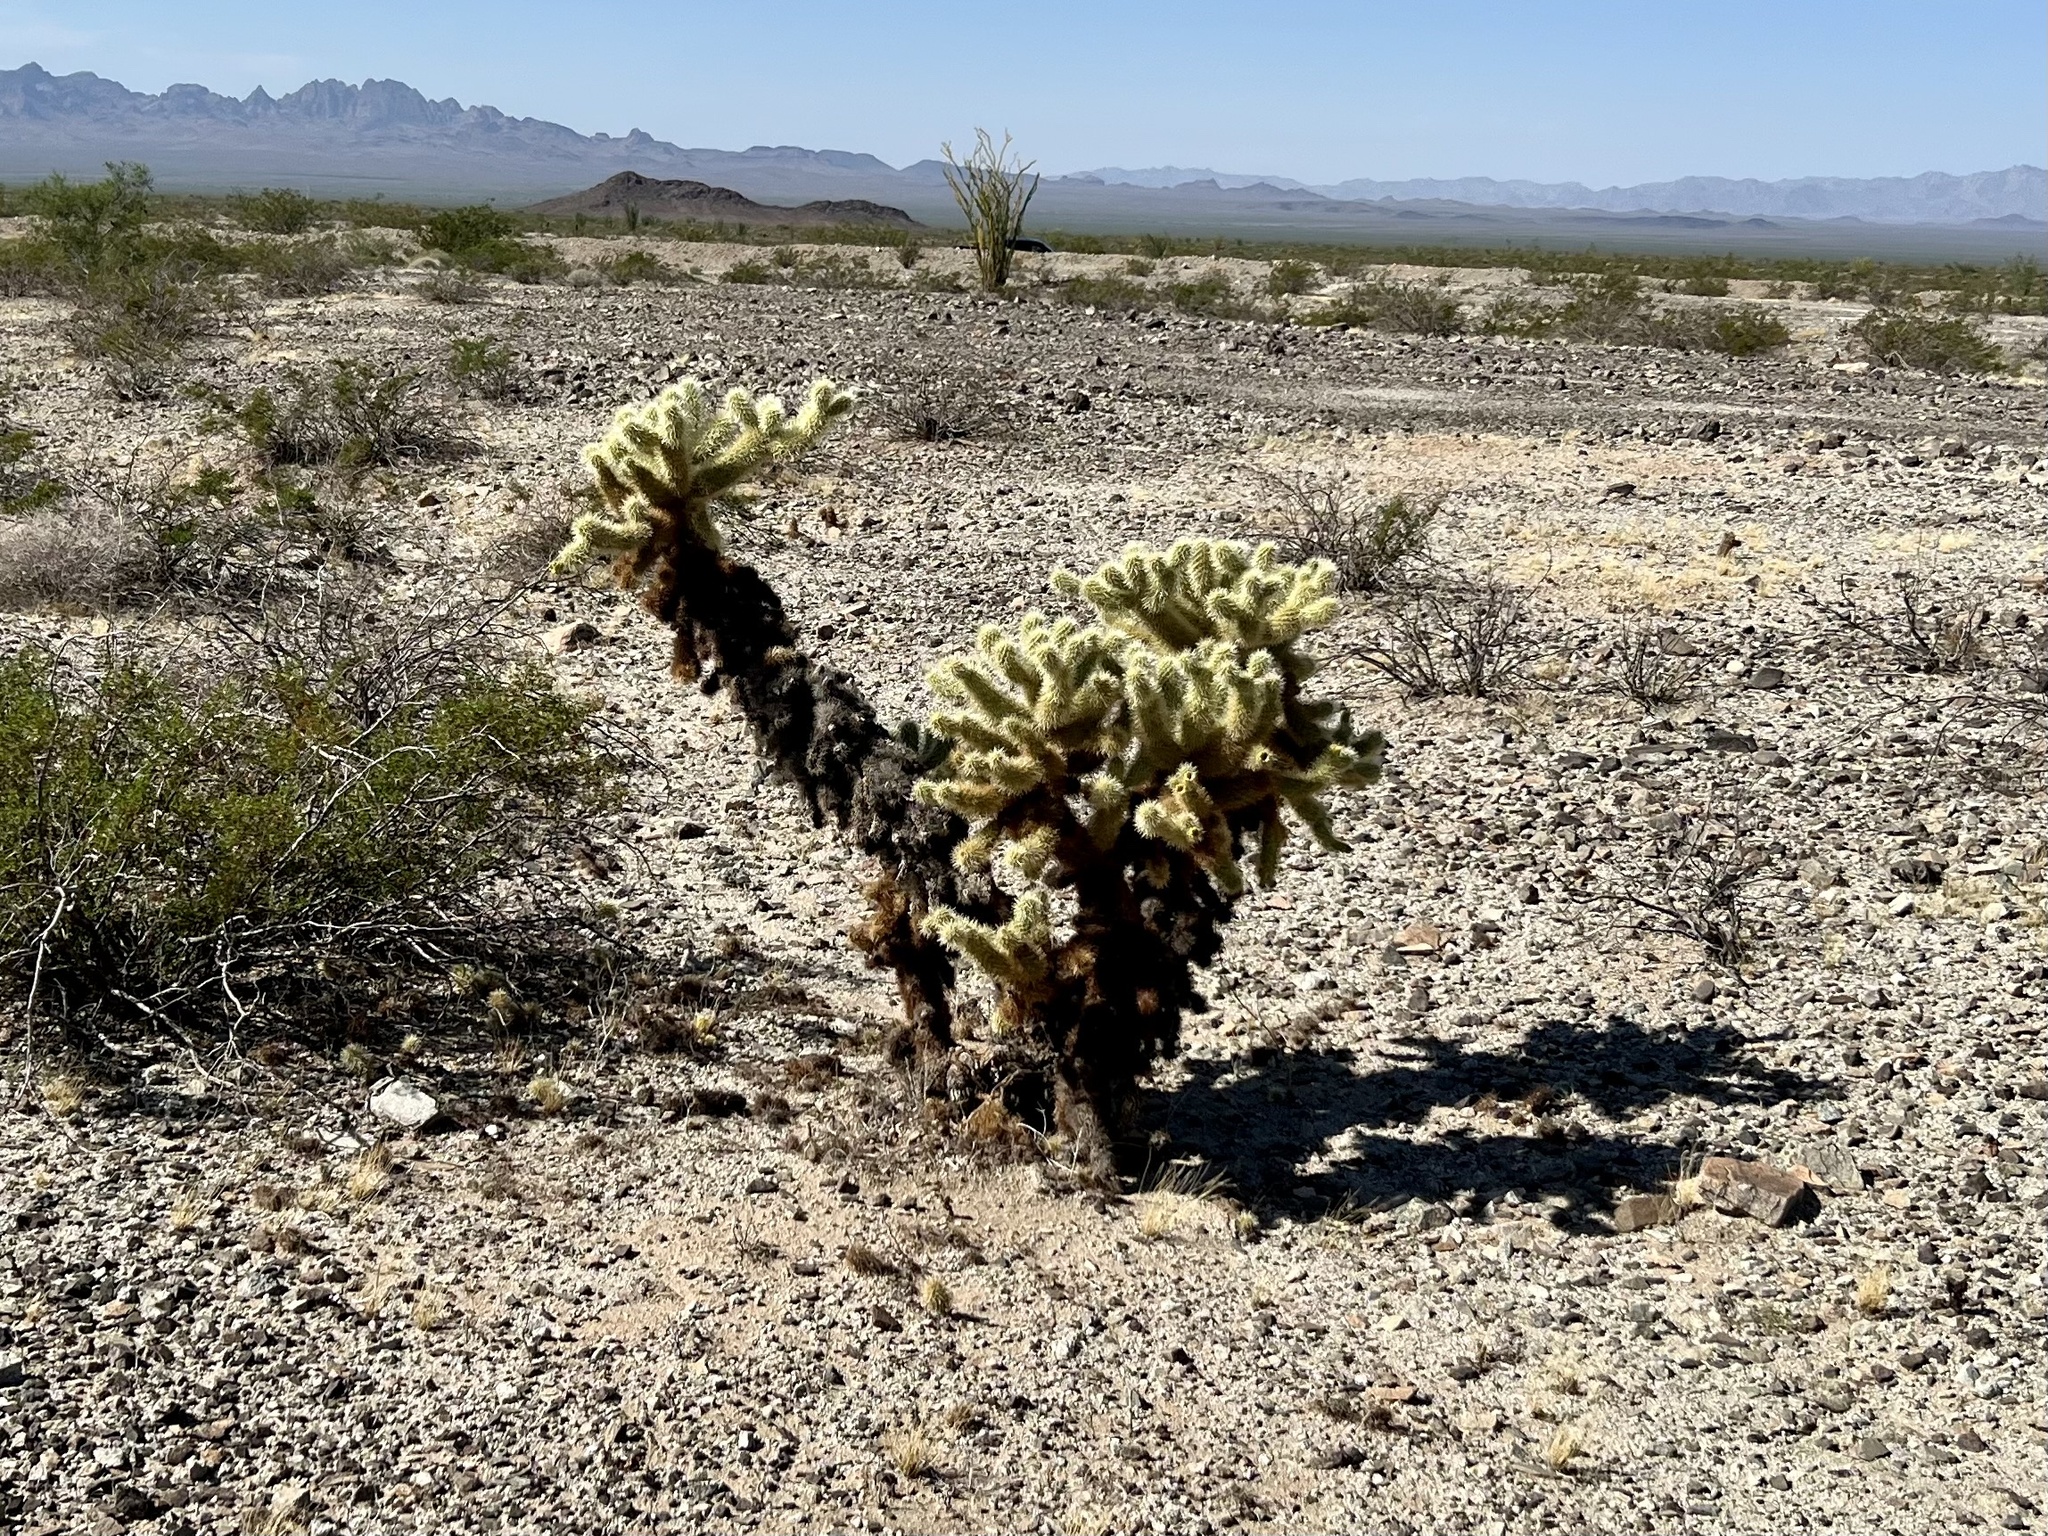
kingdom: Plantae
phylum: Tracheophyta
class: Magnoliopsida
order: Caryophyllales
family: Cactaceae
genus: Cylindropuntia
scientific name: Cylindropuntia fosbergii
